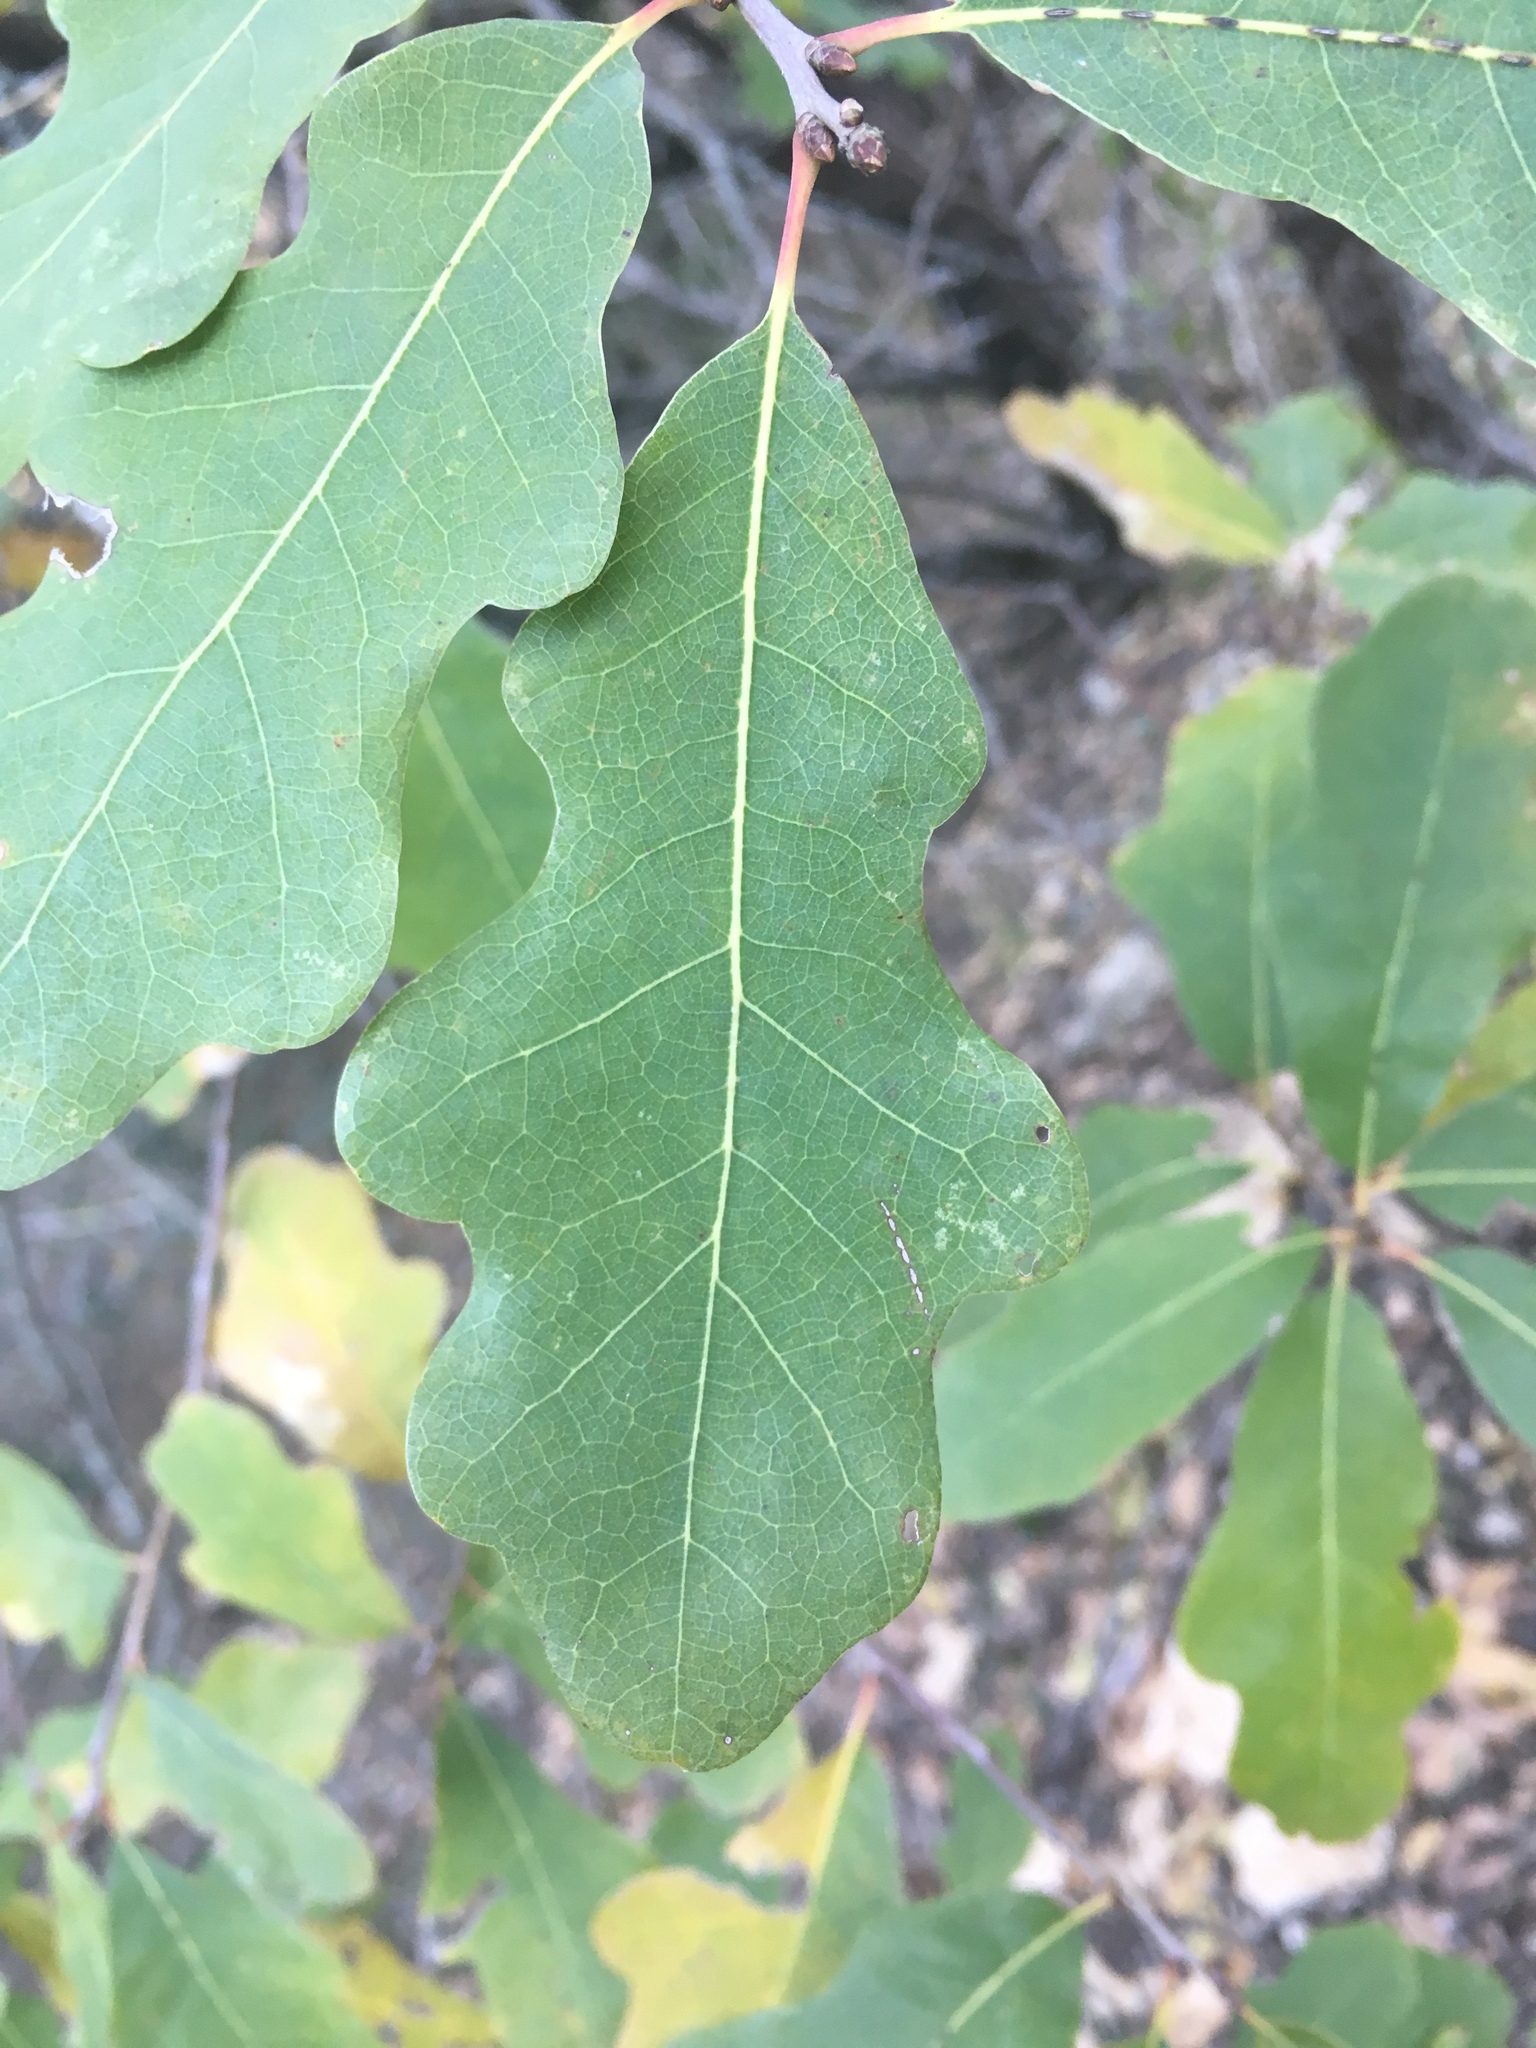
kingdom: Plantae
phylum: Tracheophyta
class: Magnoliopsida
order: Fagales
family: Fagaceae
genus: Quercus
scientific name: Quercus laceyi
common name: Lacey oak
